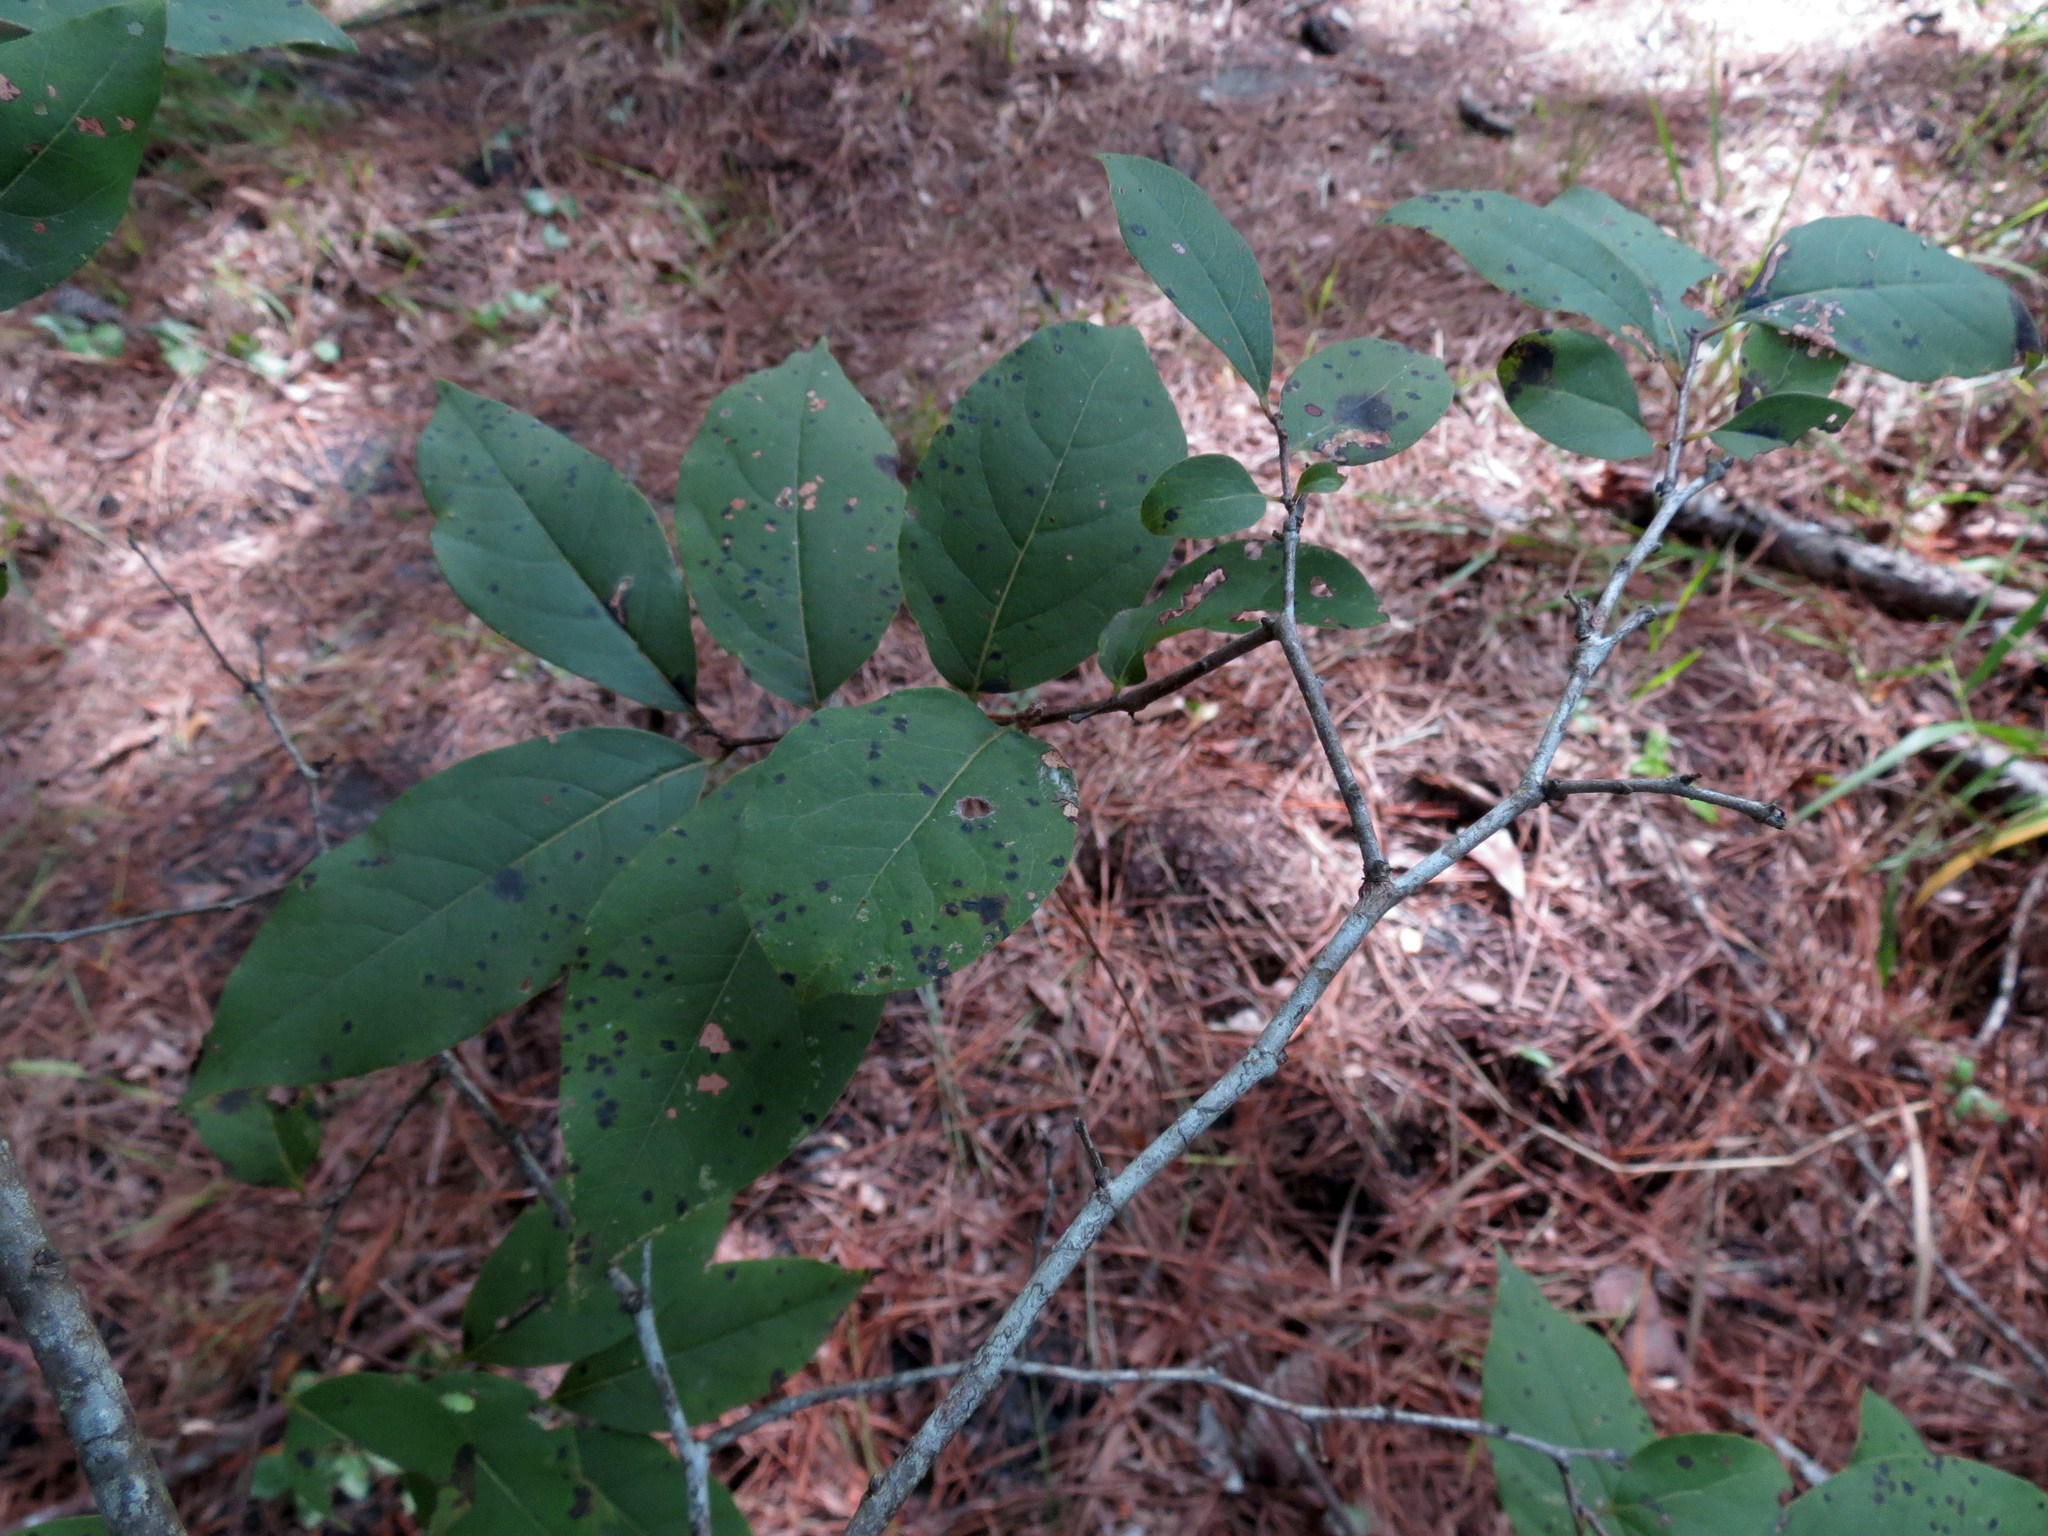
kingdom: Plantae
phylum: Tracheophyta
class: Magnoliopsida
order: Ericales
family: Ebenaceae
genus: Diospyros
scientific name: Diospyros virginiana
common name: Persimmon
